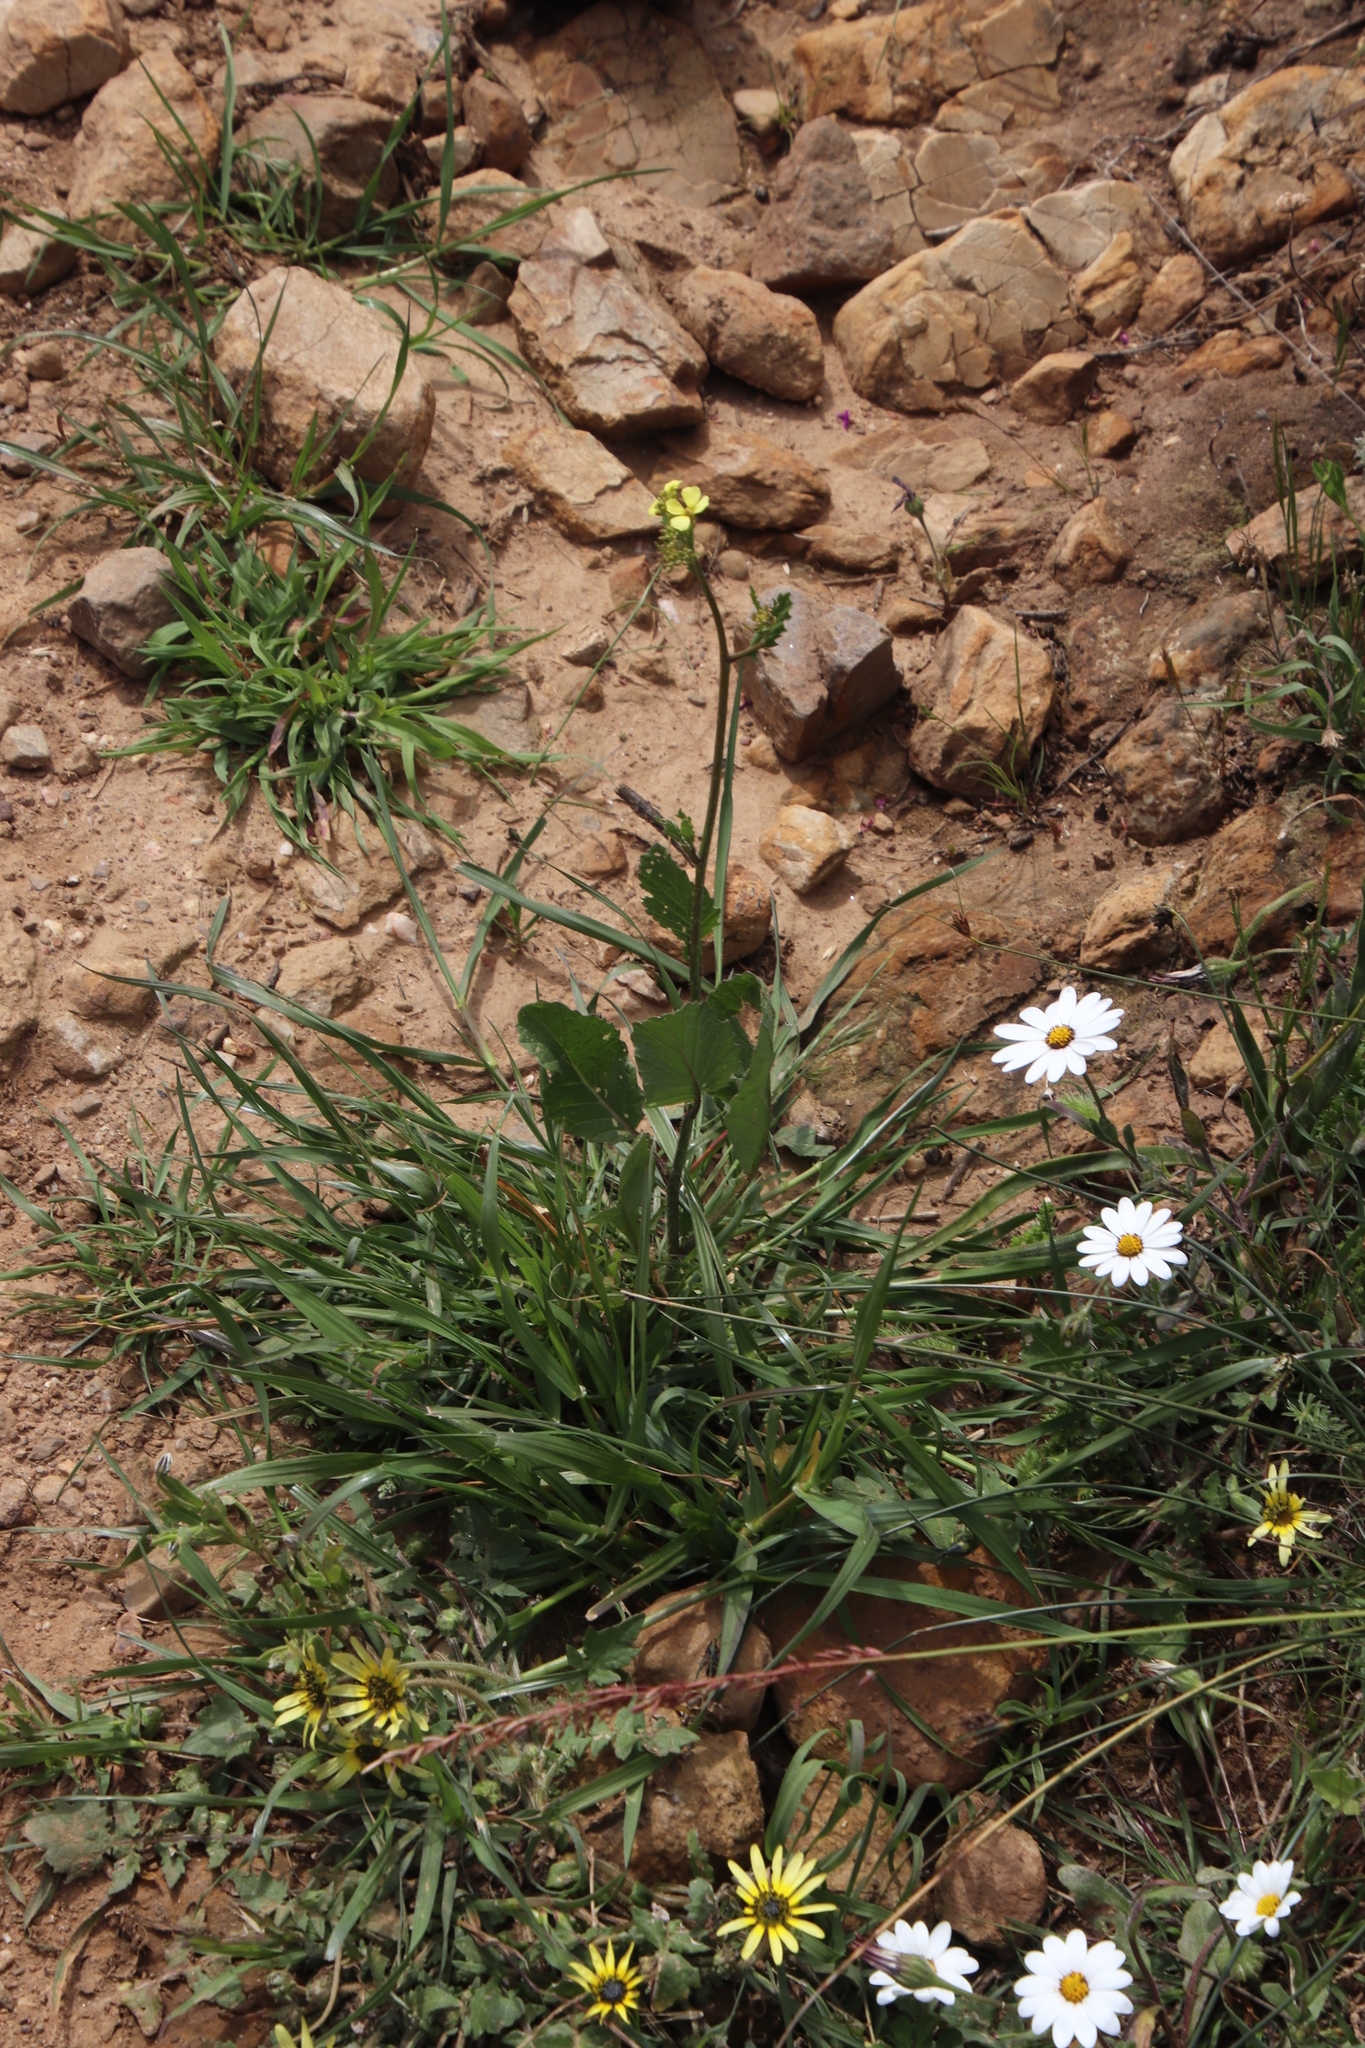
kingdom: Plantae
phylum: Tracheophyta
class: Magnoliopsida
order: Brassicales
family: Brassicaceae
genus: Rapistrum
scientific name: Rapistrum rugosum
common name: Annual bastardcabbage
